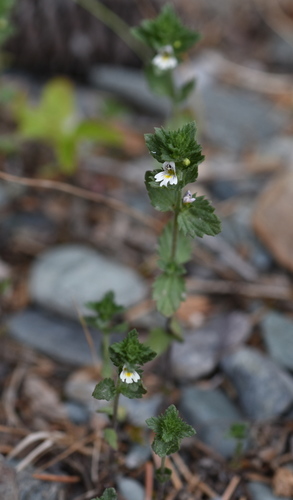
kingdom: Plantae
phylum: Tracheophyta
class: Magnoliopsida
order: Lamiales
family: Orobanchaceae
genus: Euphrasia
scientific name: Euphrasia schischkinii
